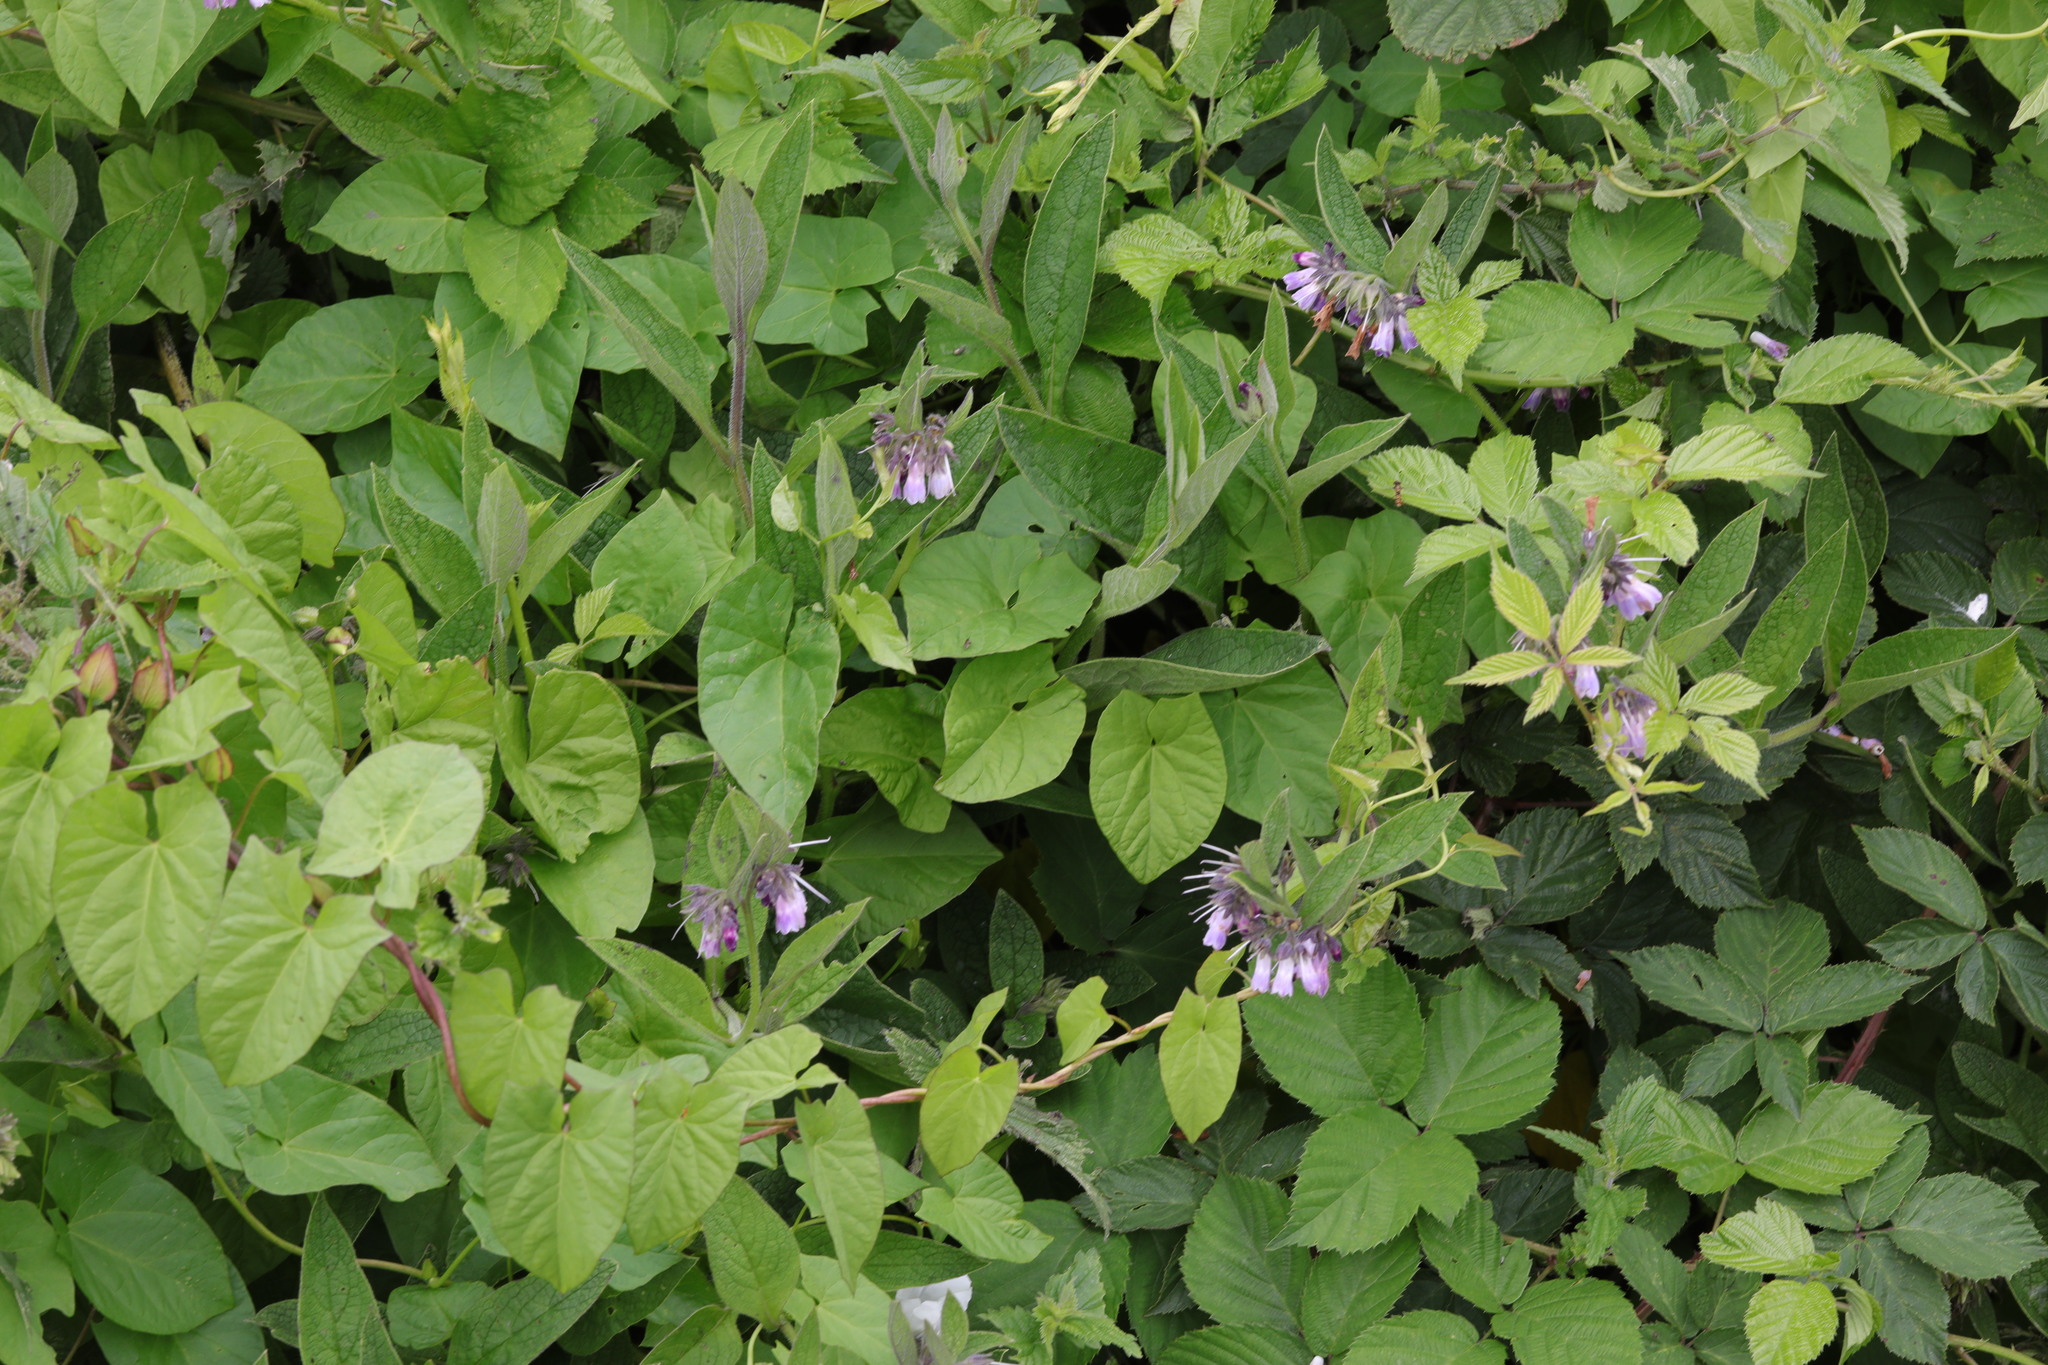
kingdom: Plantae
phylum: Tracheophyta
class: Magnoliopsida
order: Boraginales
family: Boraginaceae
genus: Symphytum
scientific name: Symphytum uplandicum
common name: Russian comfrey
